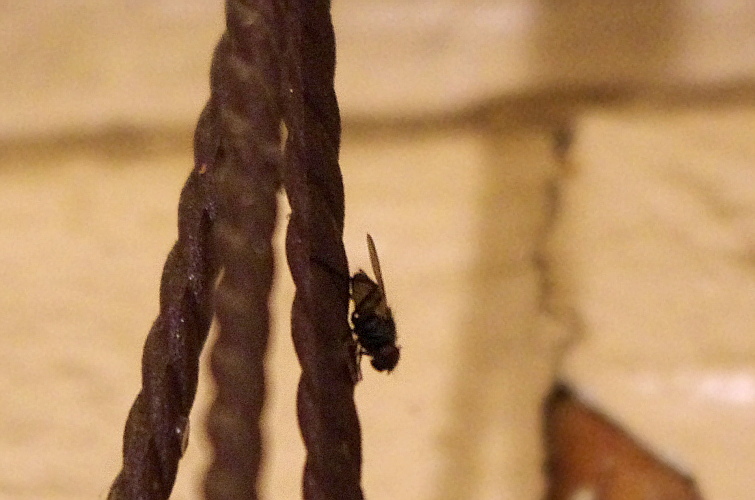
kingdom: Animalia
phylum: Arthropoda
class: Insecta
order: Diptera
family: Muscidae
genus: Musca
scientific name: Musca domestica
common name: House fly
